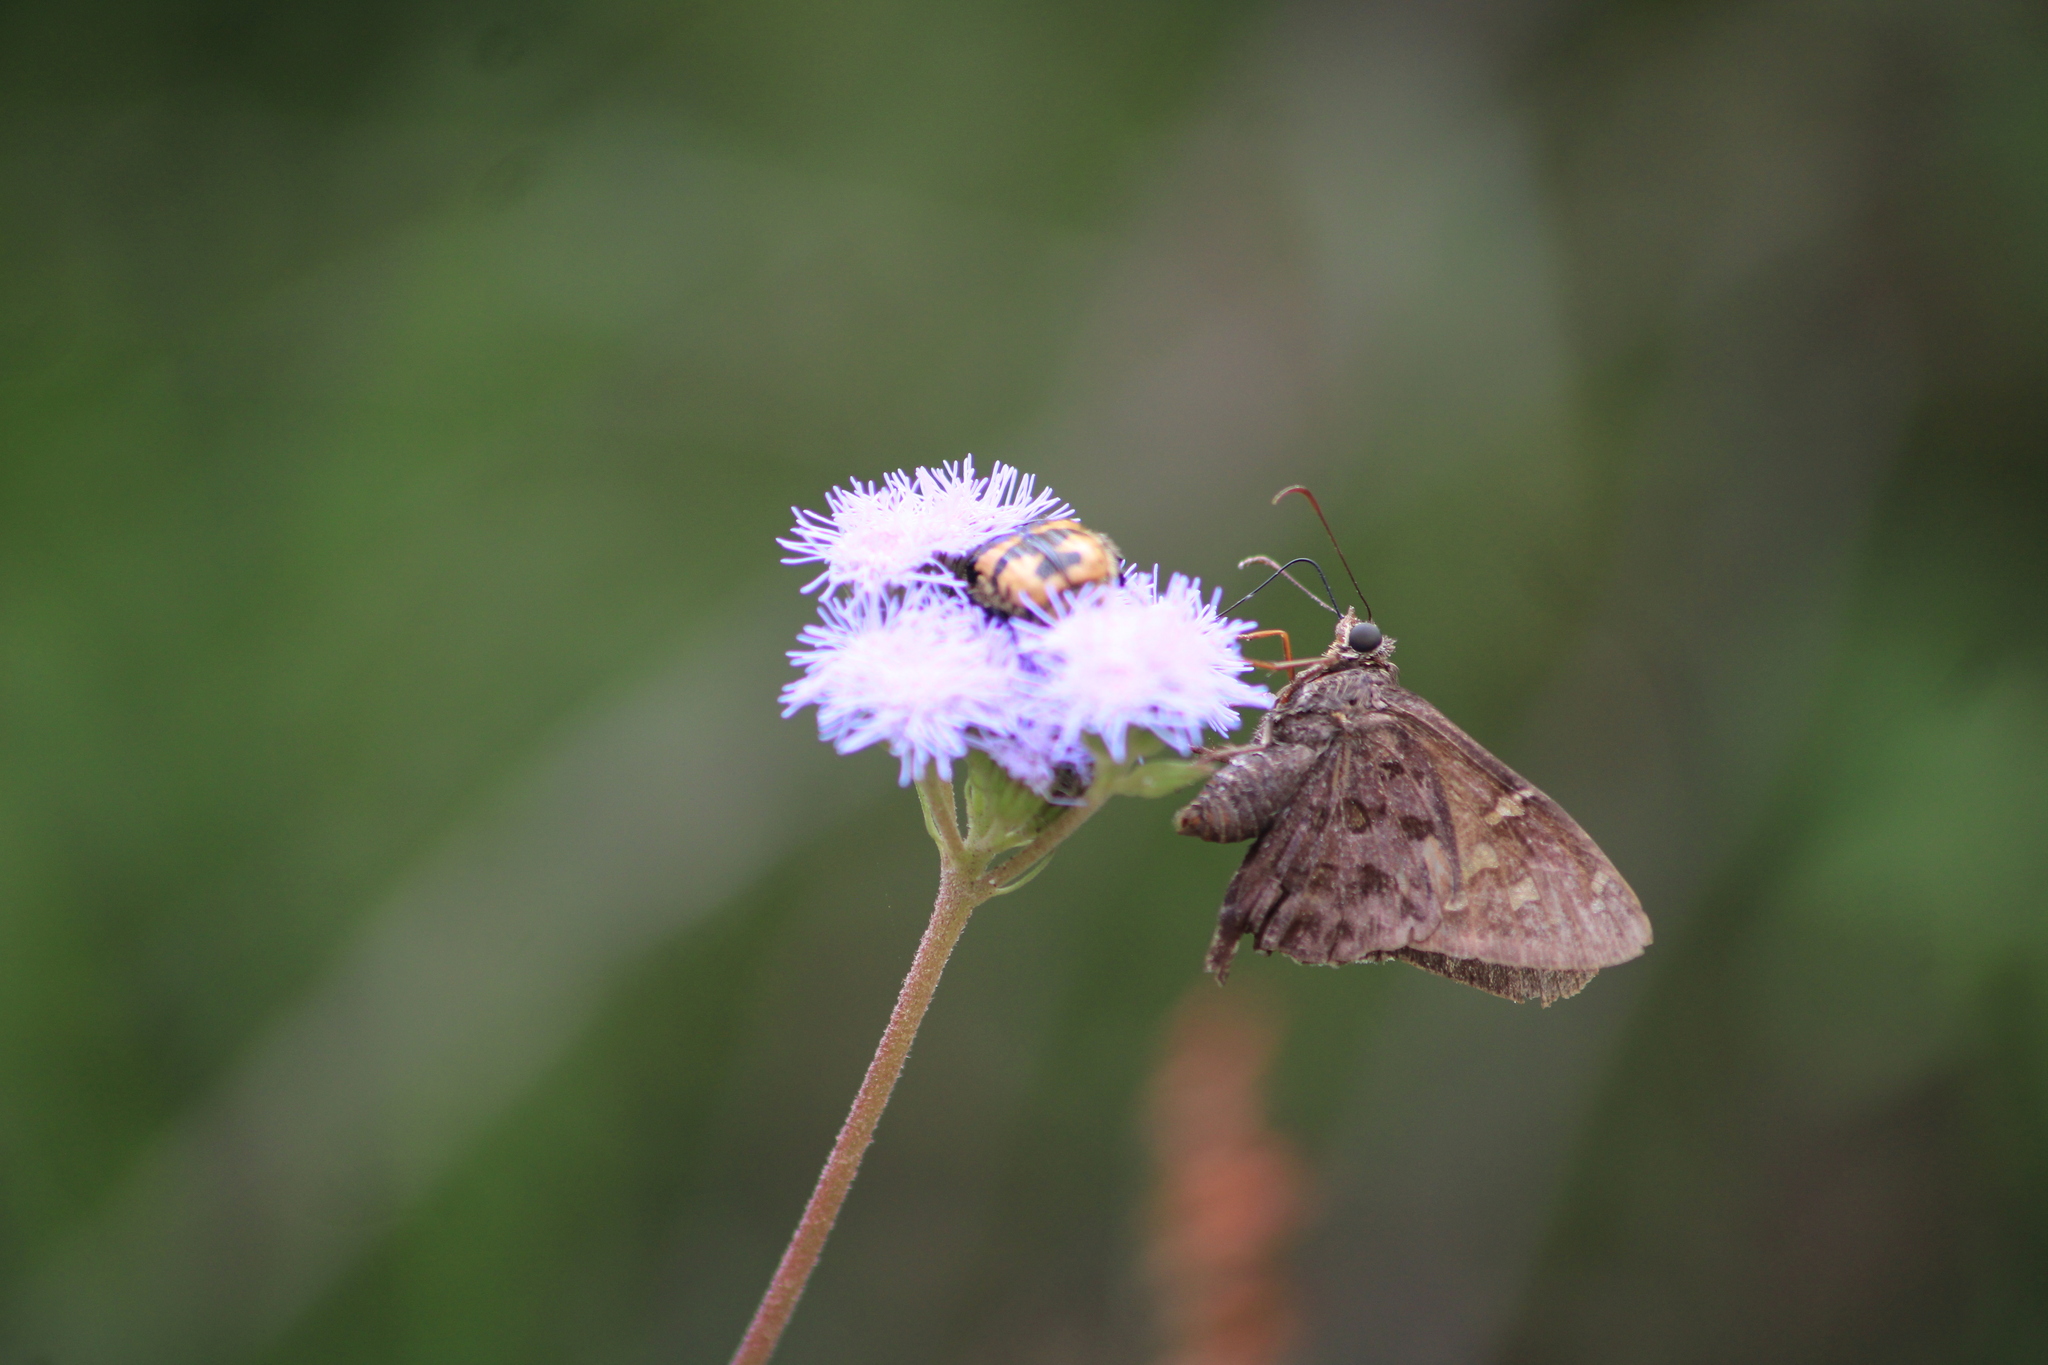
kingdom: Animalia
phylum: Arthropoda
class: Insecta
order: Lepidoptera
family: Hesperiidae
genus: Thorybes
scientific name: Thorybes
